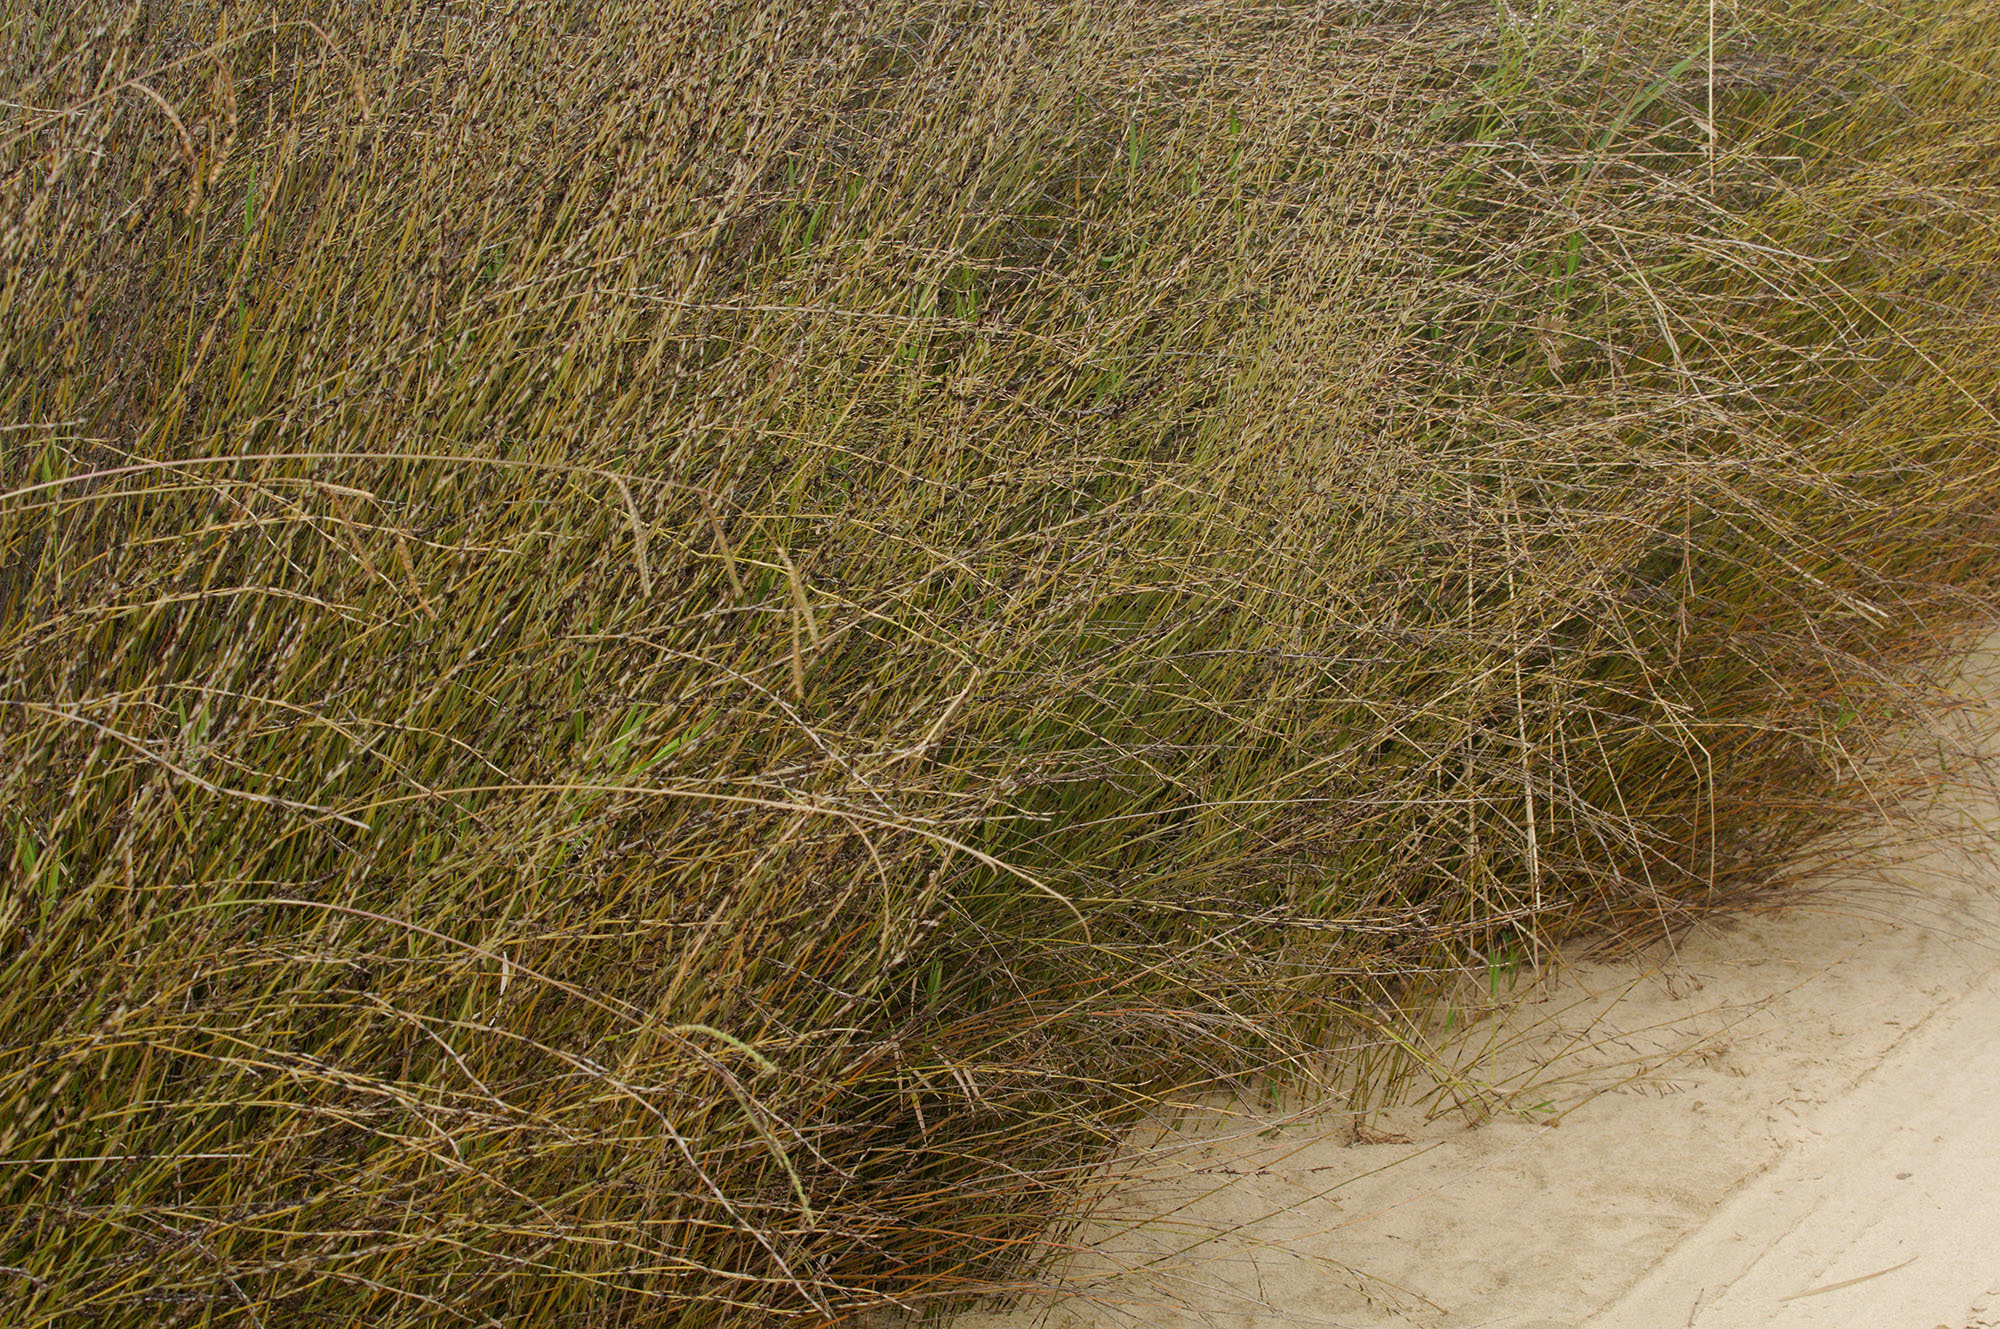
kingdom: Plantae
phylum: Tracheophyta
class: Liliopsida
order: Poales
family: Restionaceae
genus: Apodasmia
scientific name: Apodasmia similis
